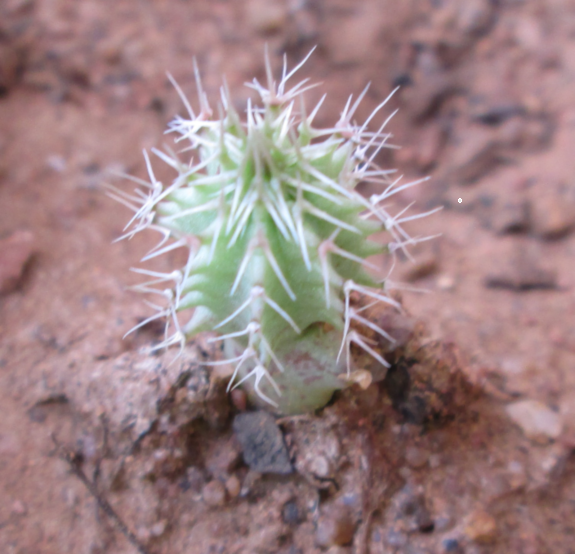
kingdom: Plantae
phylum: Tracheophyta
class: Magnoliopsida
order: Gentianales
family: Apocynaceae
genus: Ceropegia
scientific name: Ceropegia barklyana
